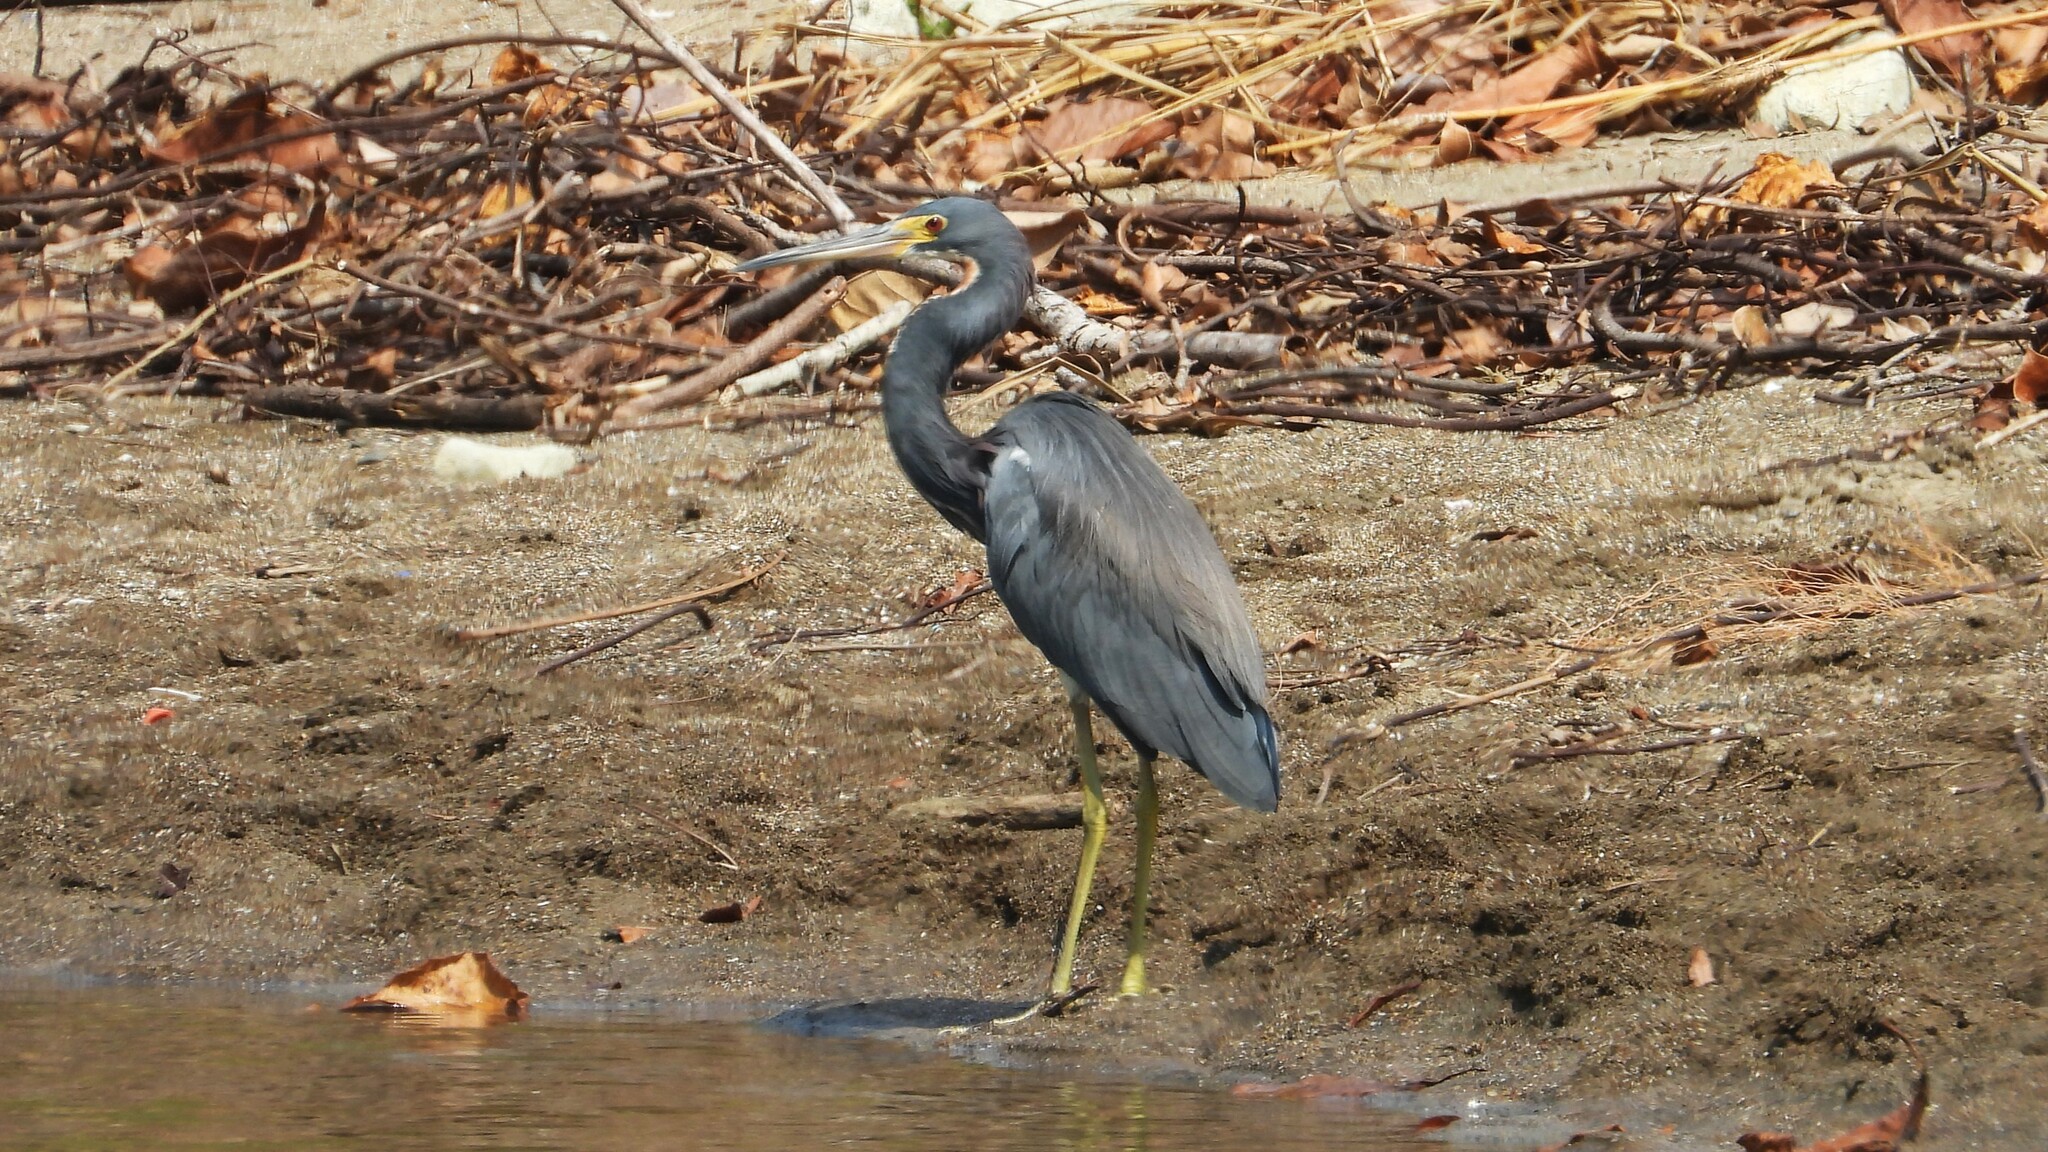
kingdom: Animalia
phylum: Chordata
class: Aves
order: Pelecaniformes
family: Ardeidae
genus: Egretta
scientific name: Egretta tricolor
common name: Tricolored heron
